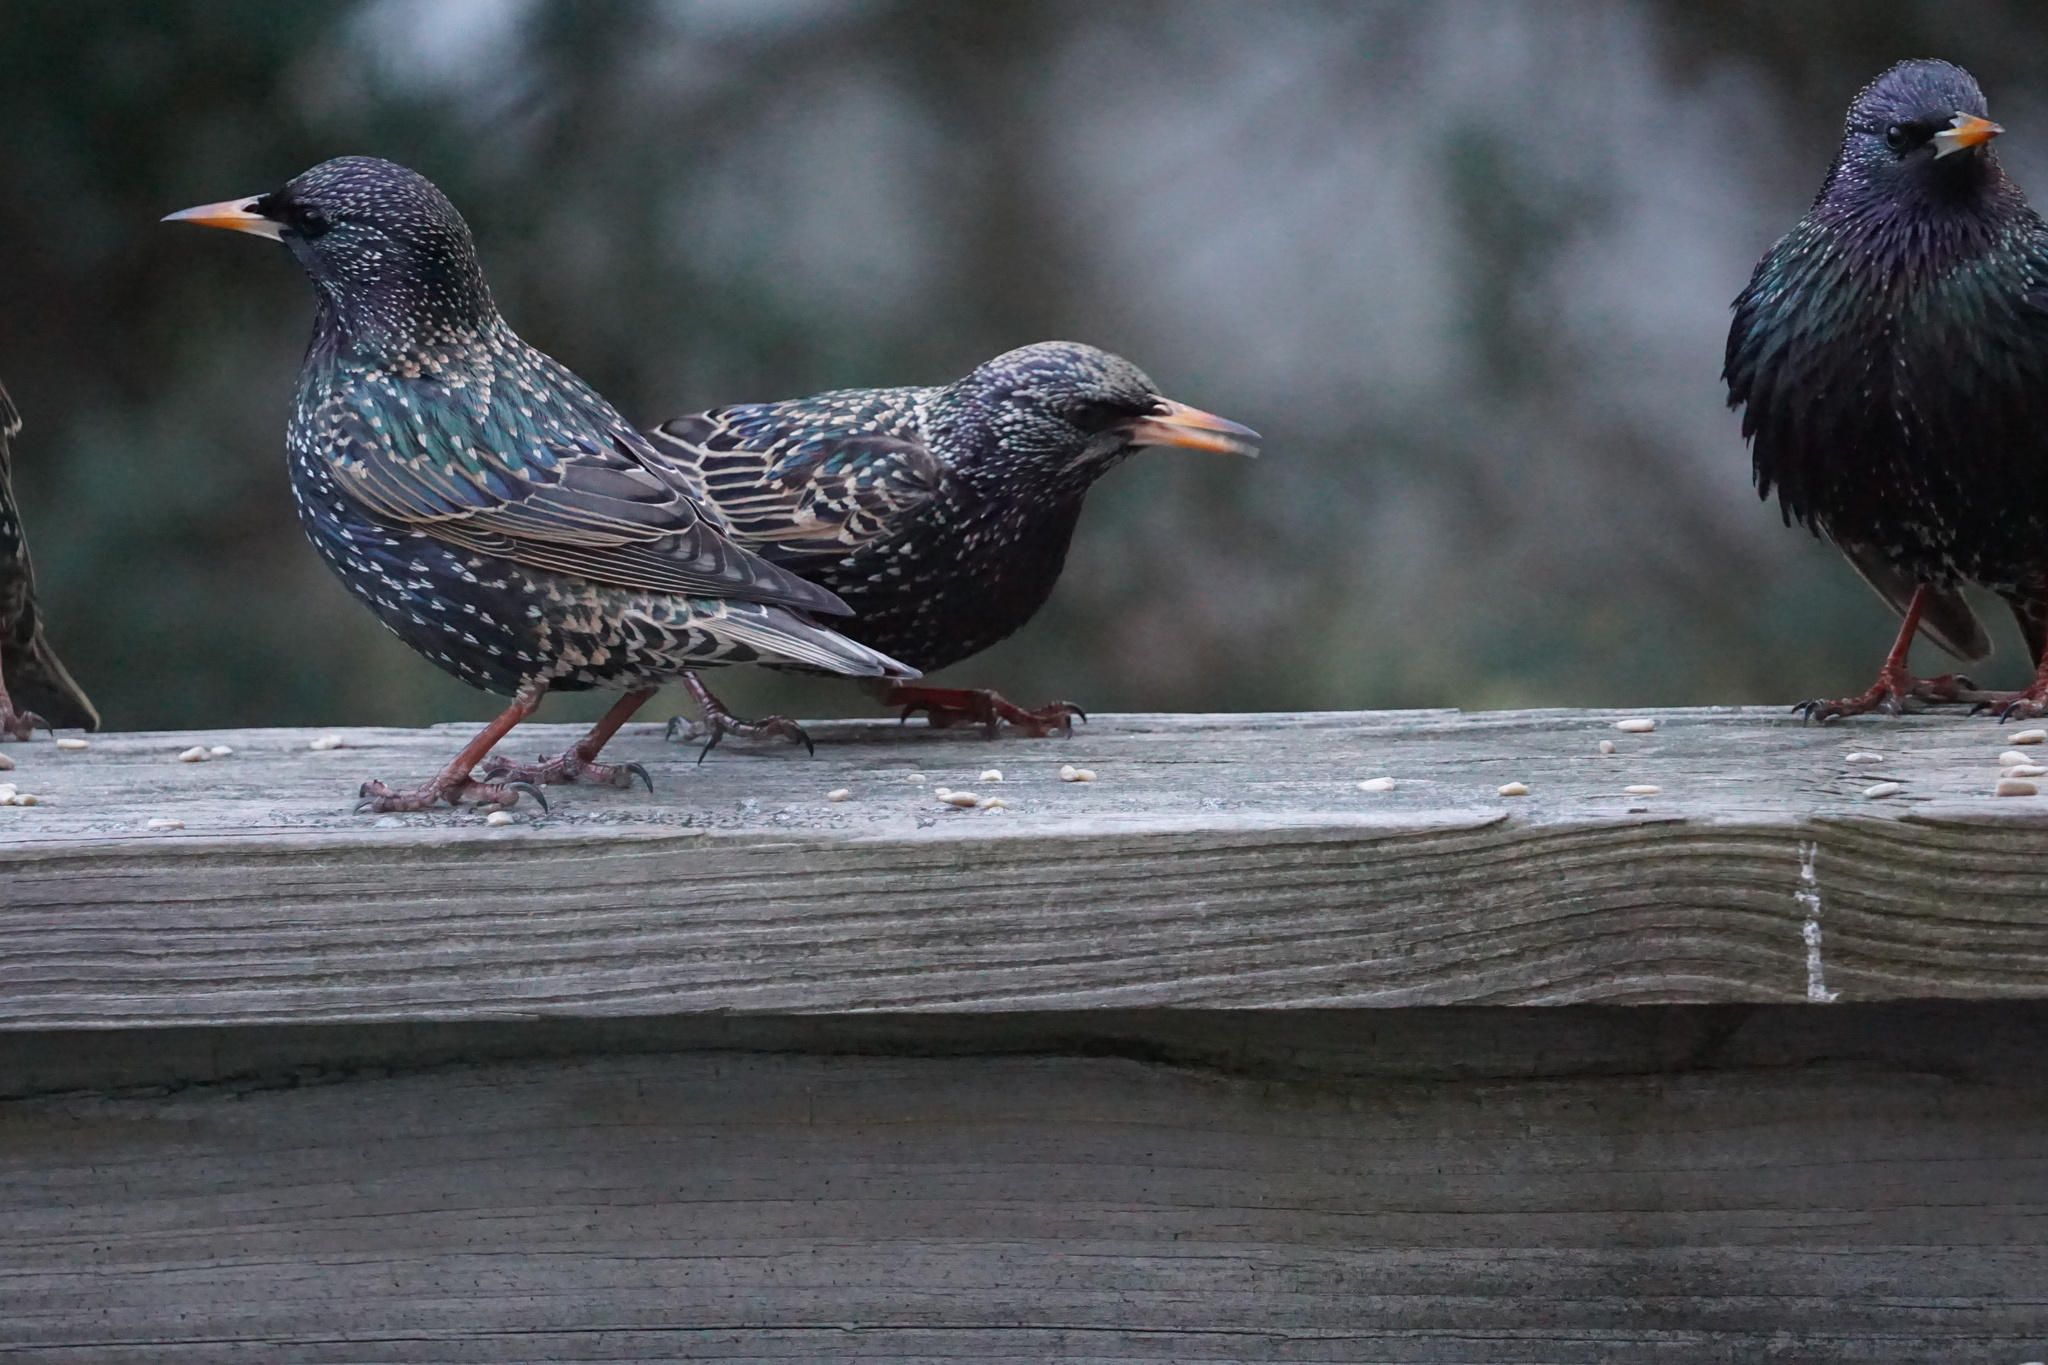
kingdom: Animalia
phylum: Chordata
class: Aves
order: Passeriformes
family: Sturnidae
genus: Sturnus
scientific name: Sturnus vulgaris
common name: Common starling
